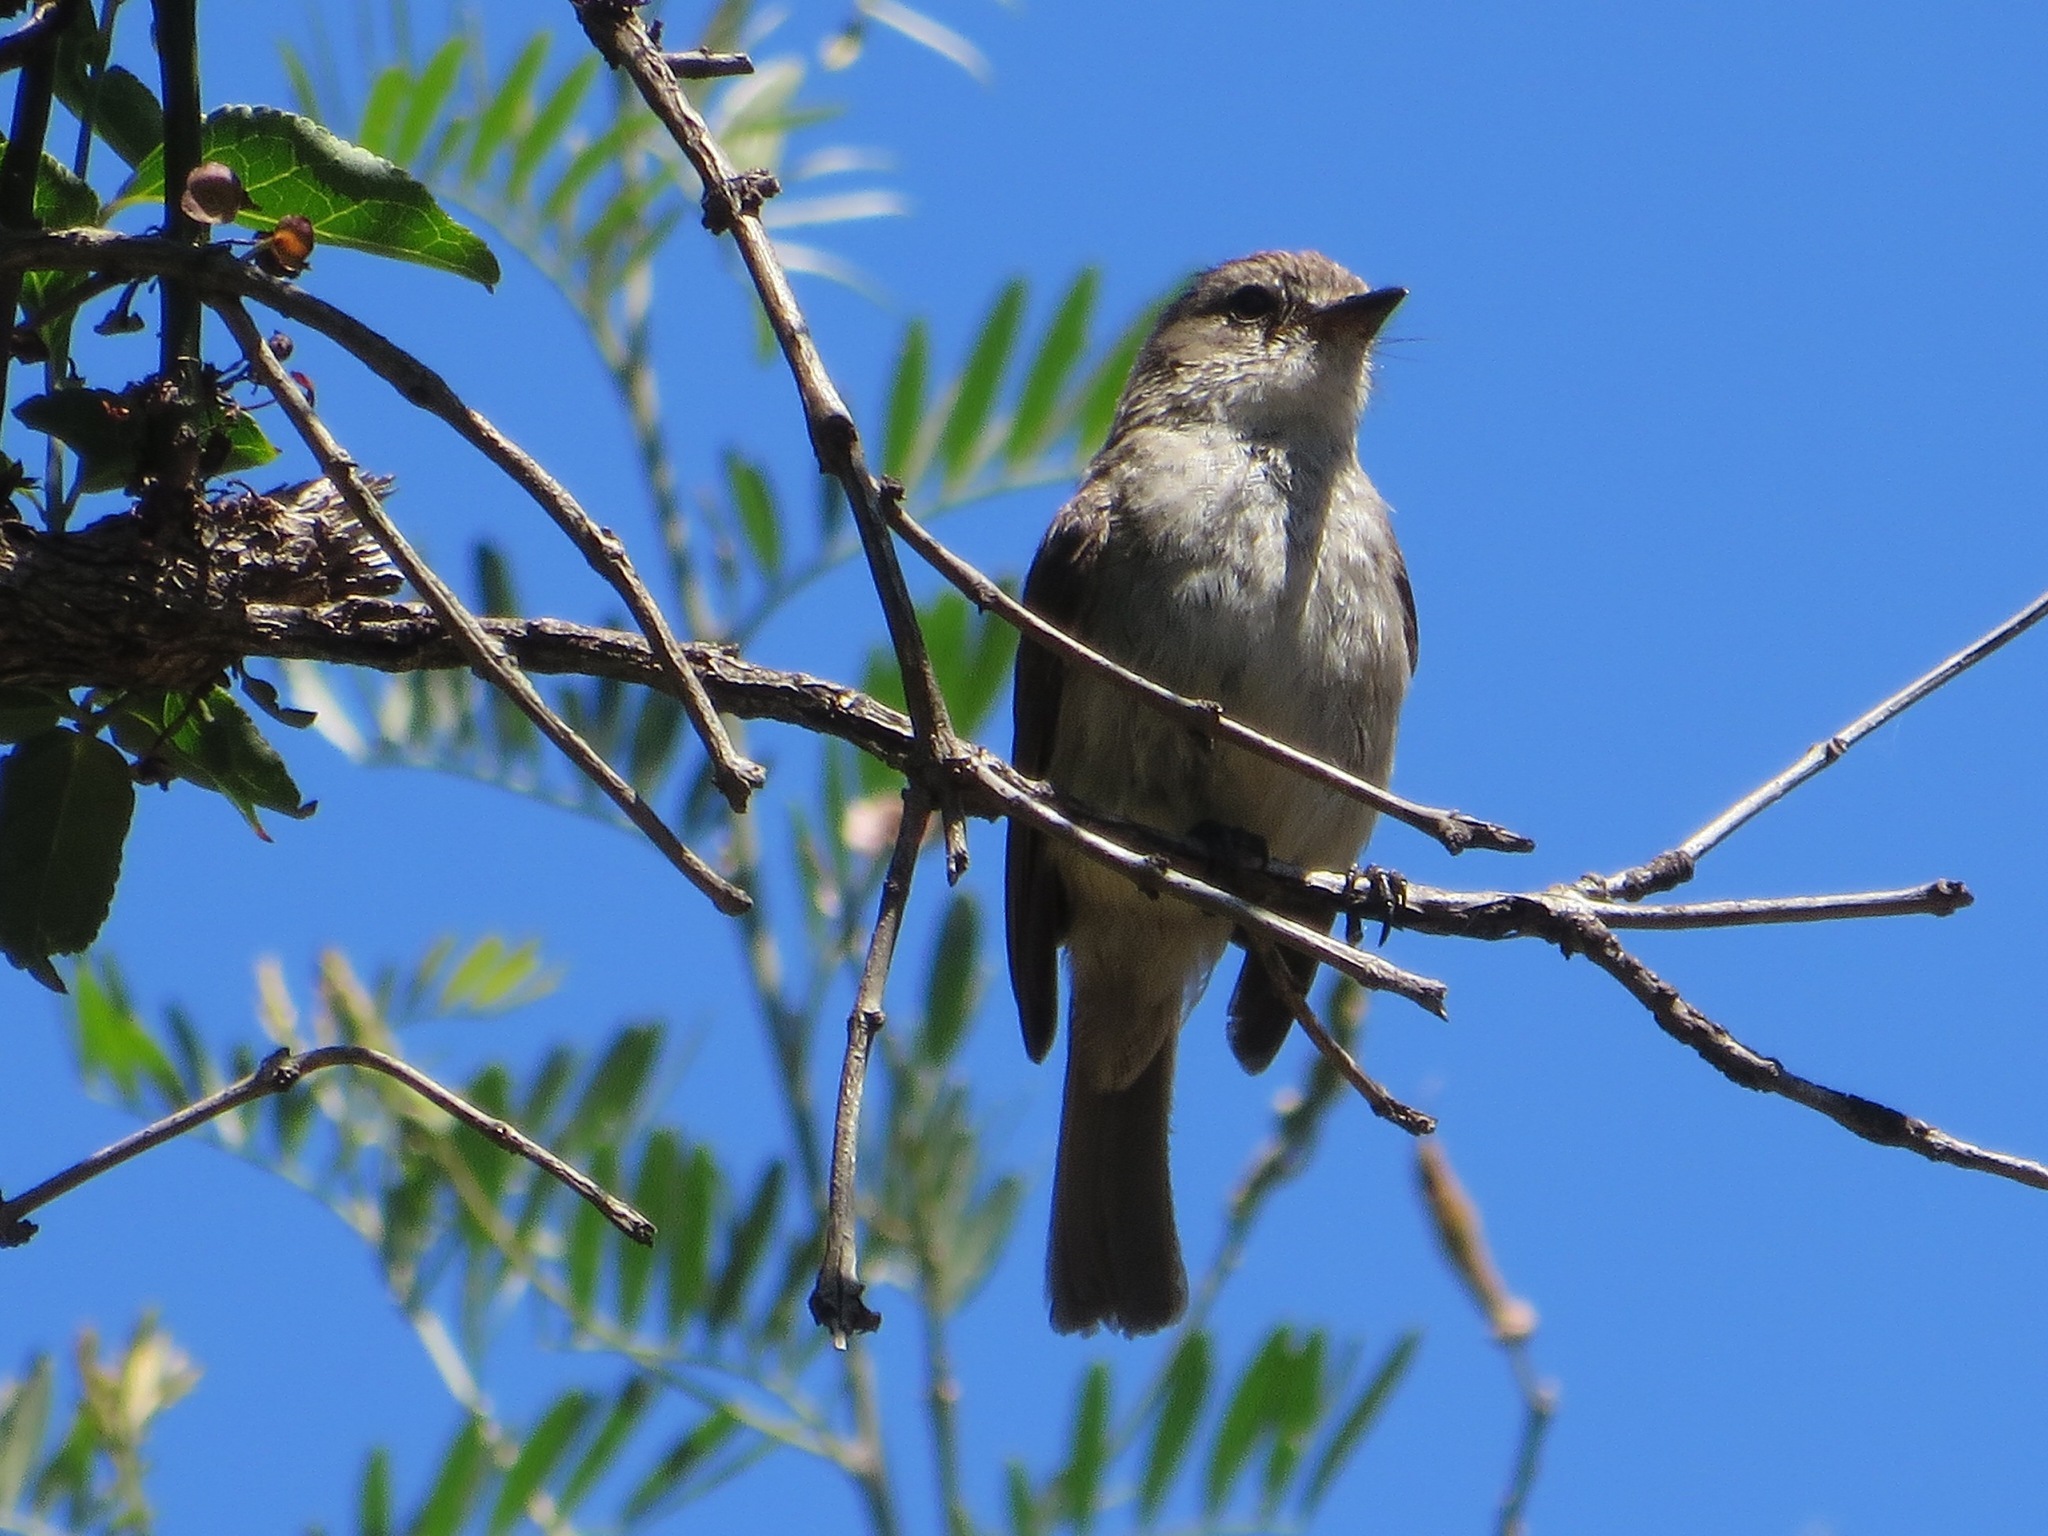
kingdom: Animalia
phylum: Chordata
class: Aves
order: Passeriformes
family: Muscicapidae
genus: Muscicapa
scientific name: Muscicapa adusta
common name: African dusky flycatcher
